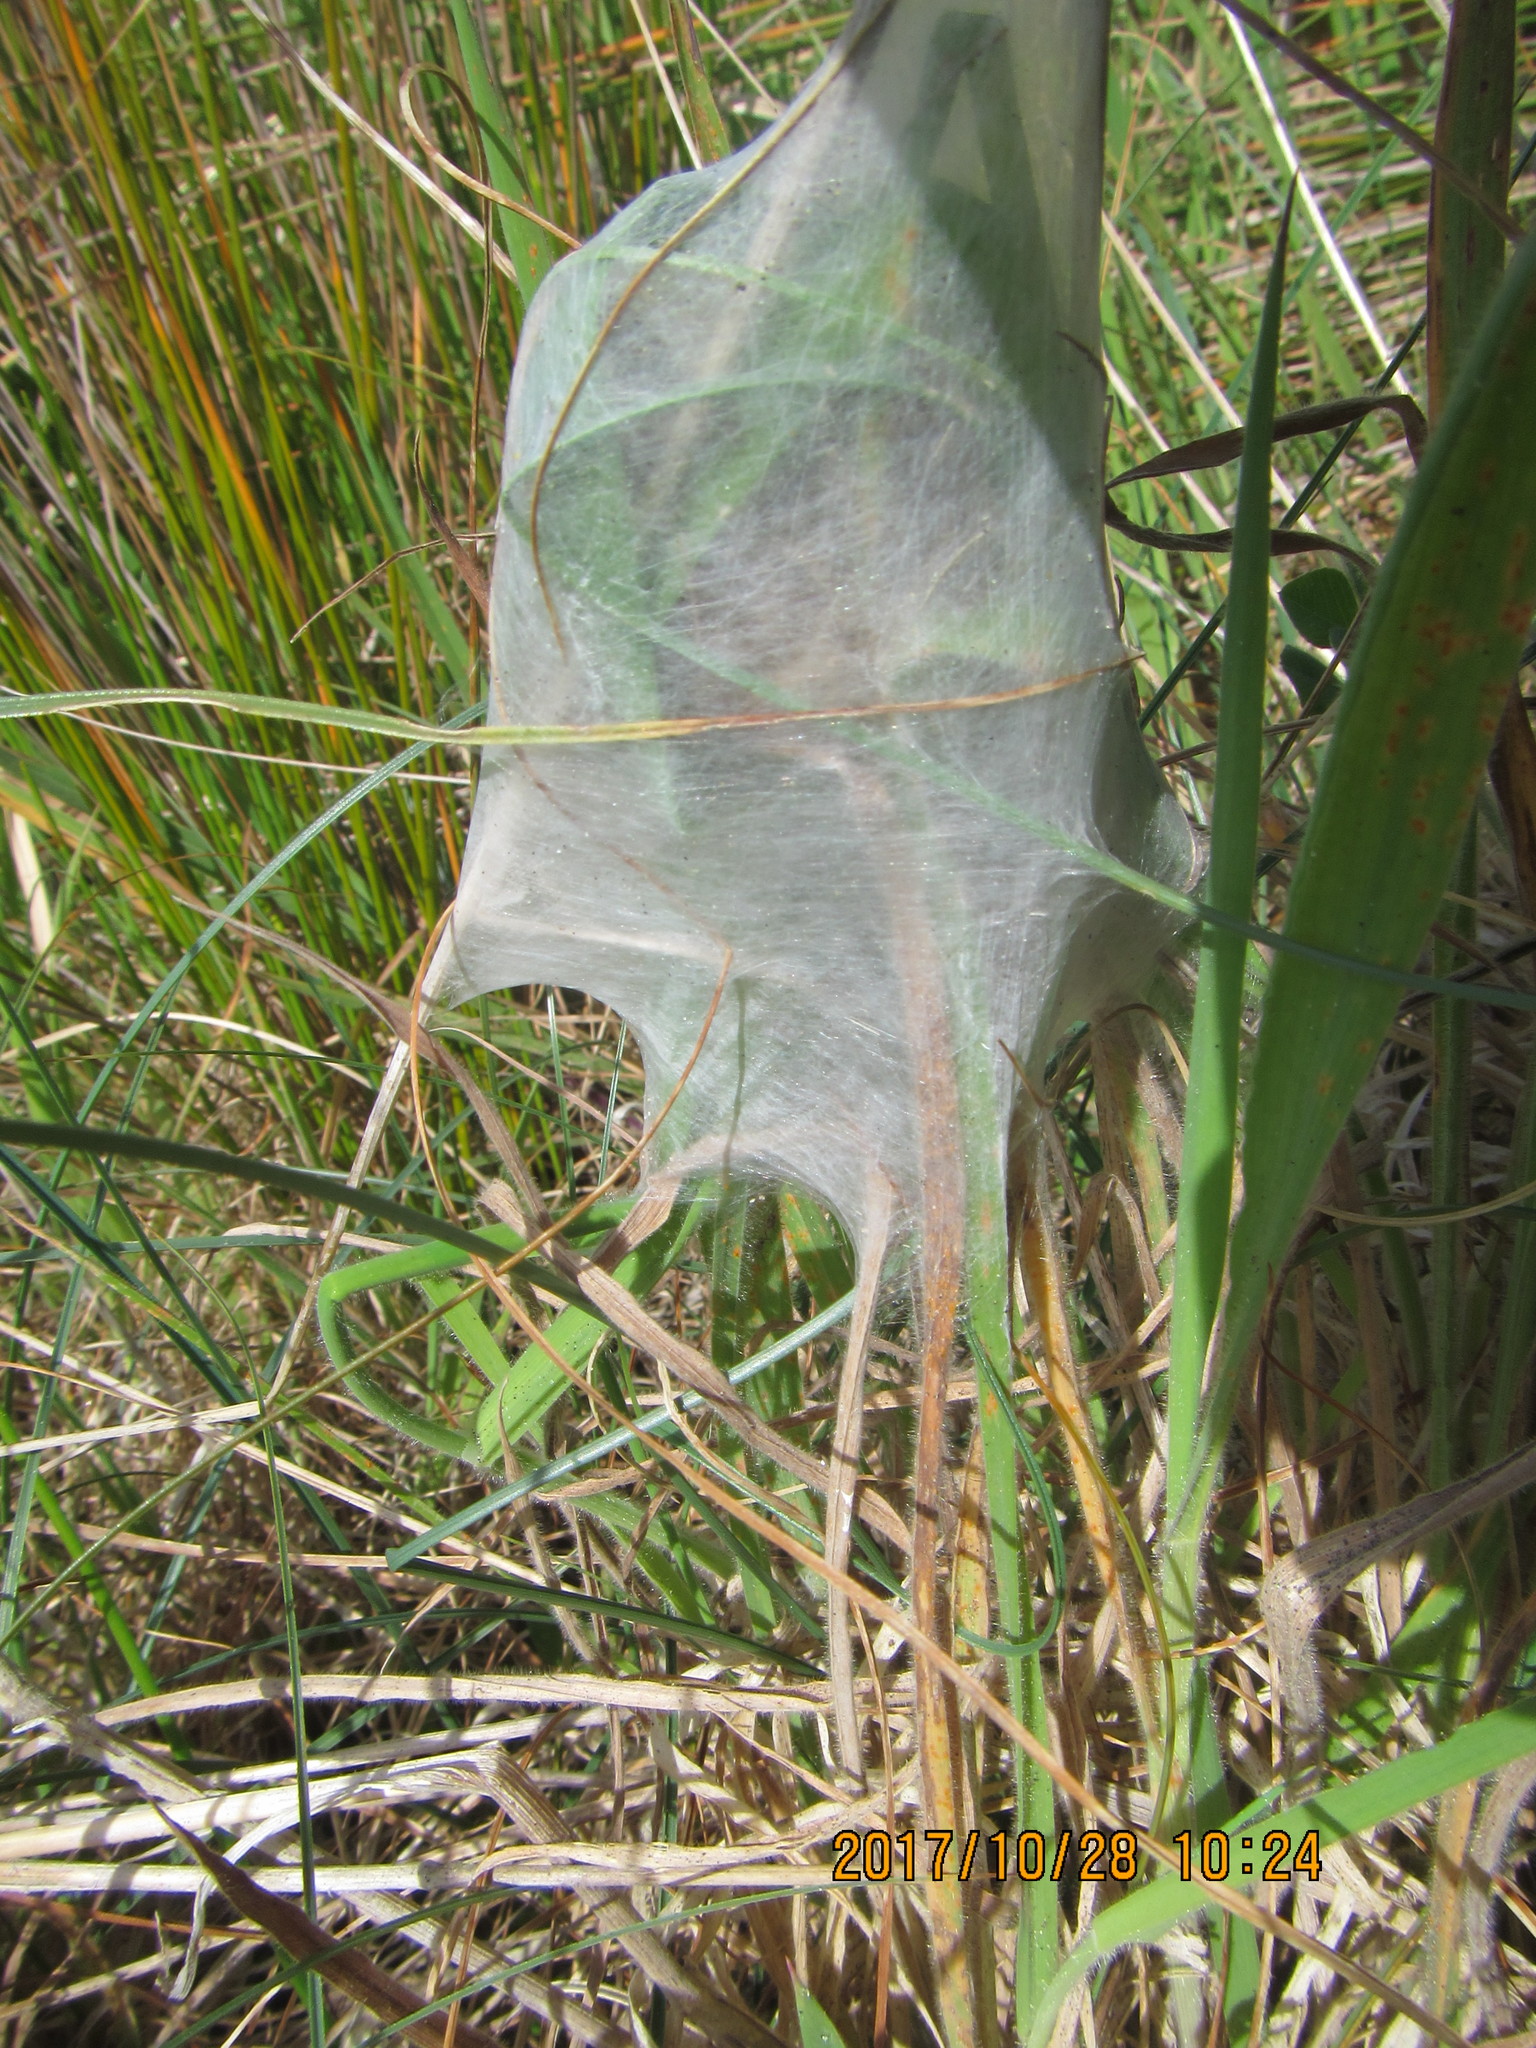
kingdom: Animalia
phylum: Arthropoda
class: Arachnida
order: Araneae
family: Pisauridae
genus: Dolomedes
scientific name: Dolomedes minor
